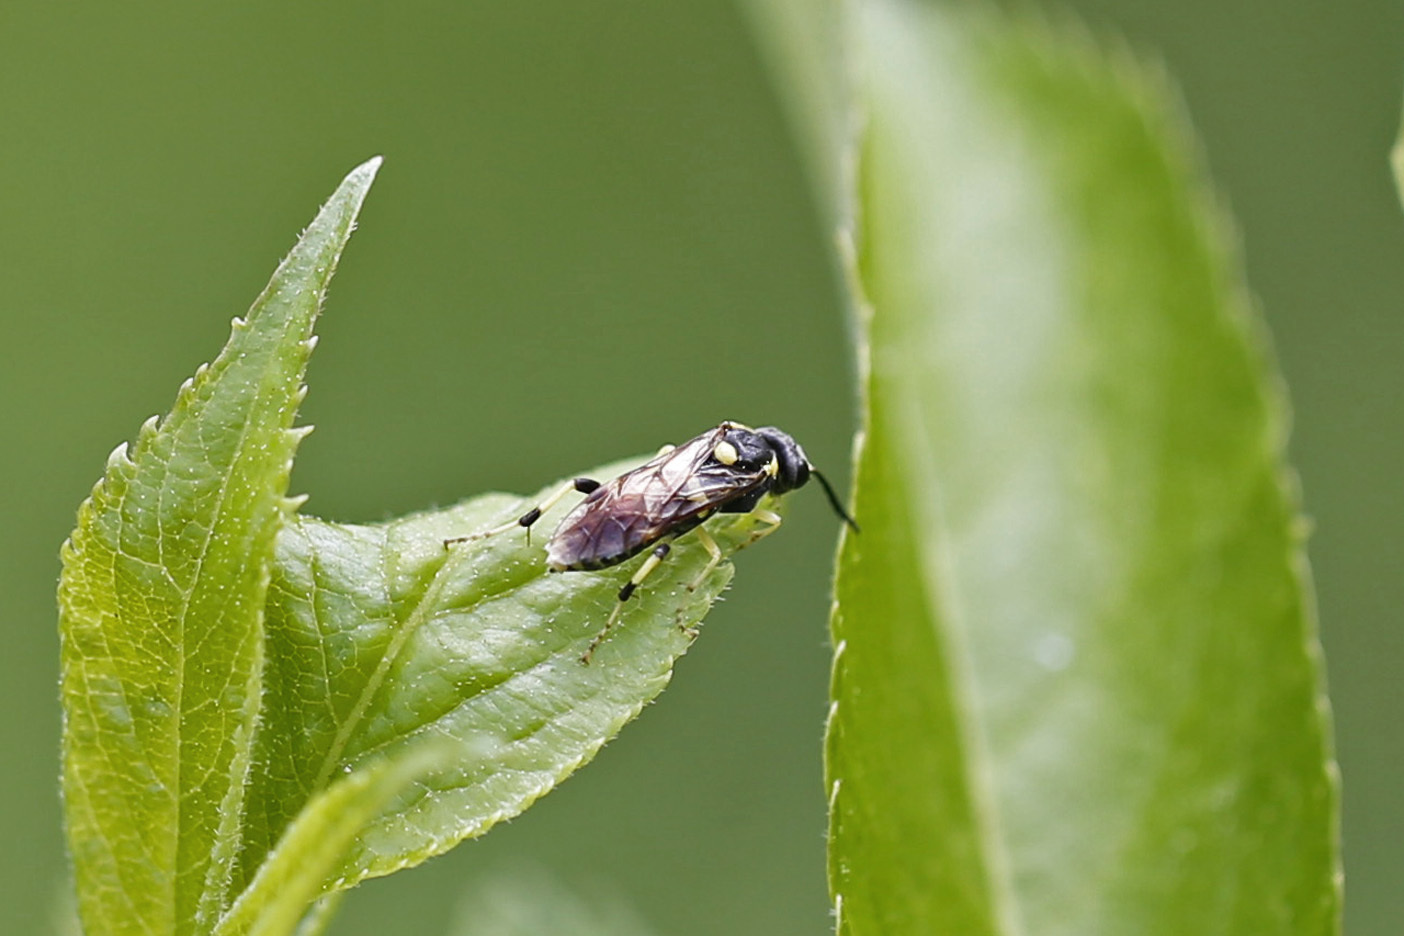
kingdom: Animalia
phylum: Arthropoda
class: Insecta
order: Hymenoptera
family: Tenthredinidae
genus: Macrophya
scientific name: Macrophya
